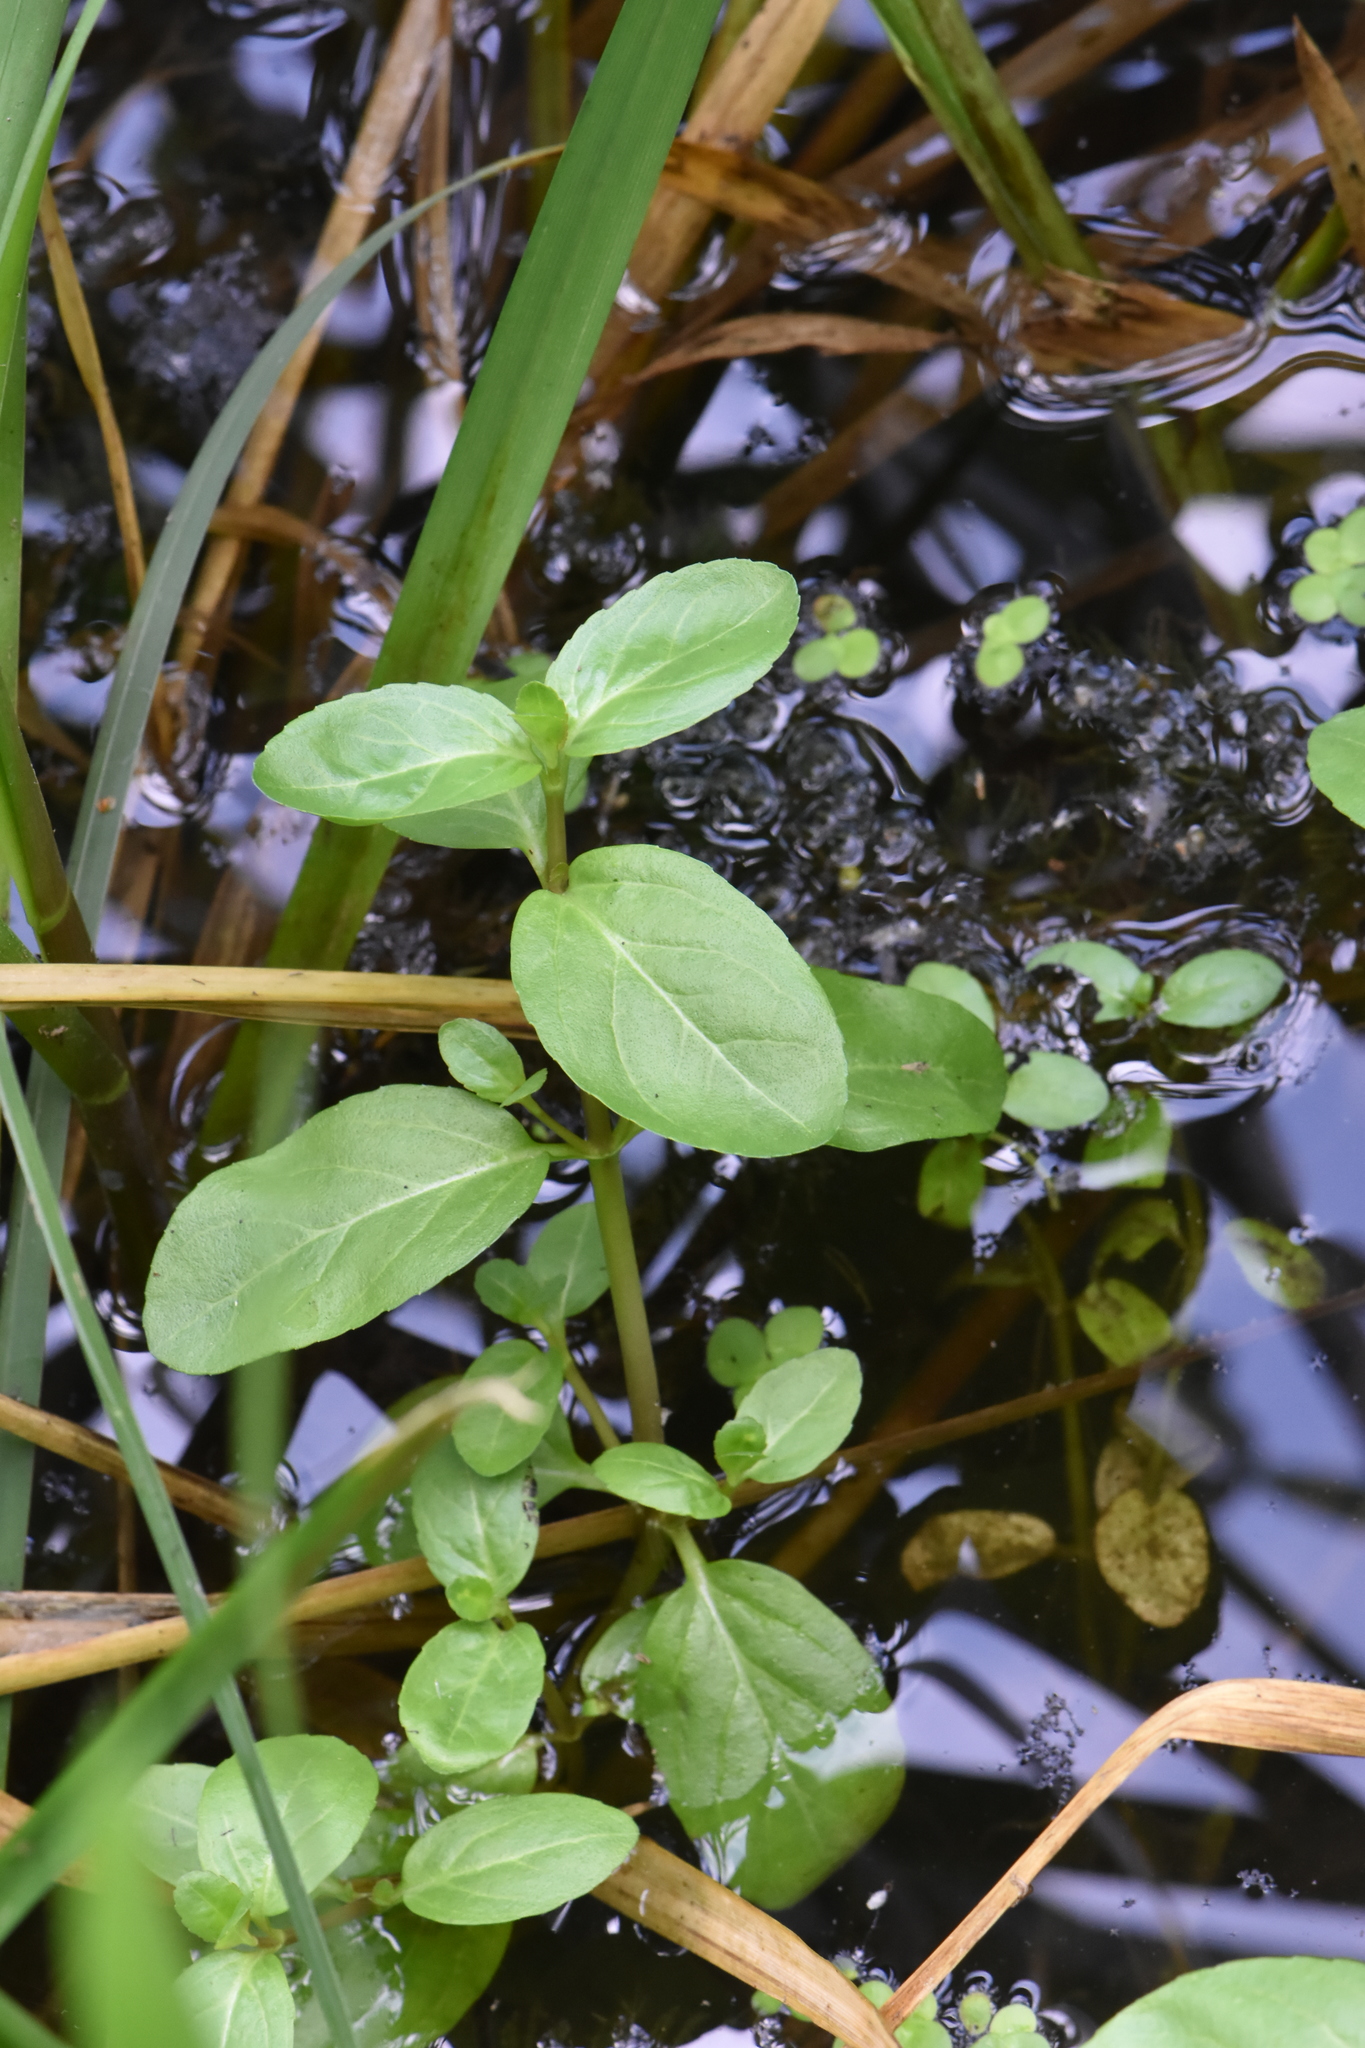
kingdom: Plantae
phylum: Tracheophyta
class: Magnoliopsida
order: Lamiales
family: Plantaginaceae
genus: Veronica
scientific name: Veronica beccabunga
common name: Brooklime
